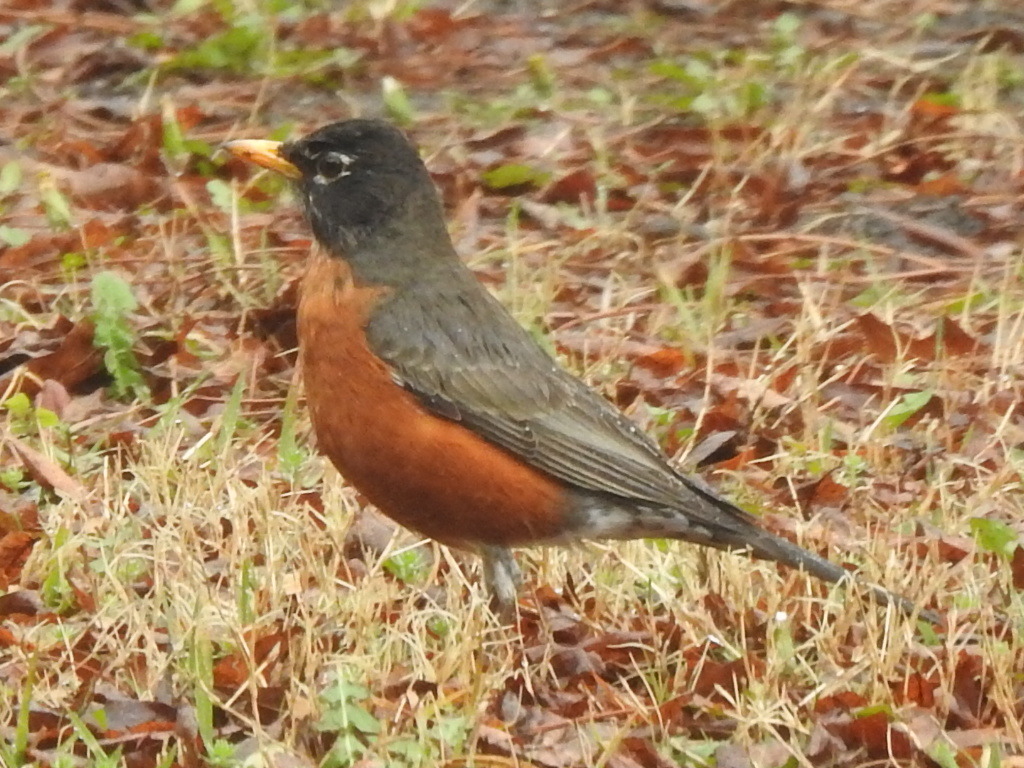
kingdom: Animalia
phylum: Chordata
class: Aves
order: Passeriformes
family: Turdidae
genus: Turdus
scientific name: Turdus migratorius
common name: American robin
